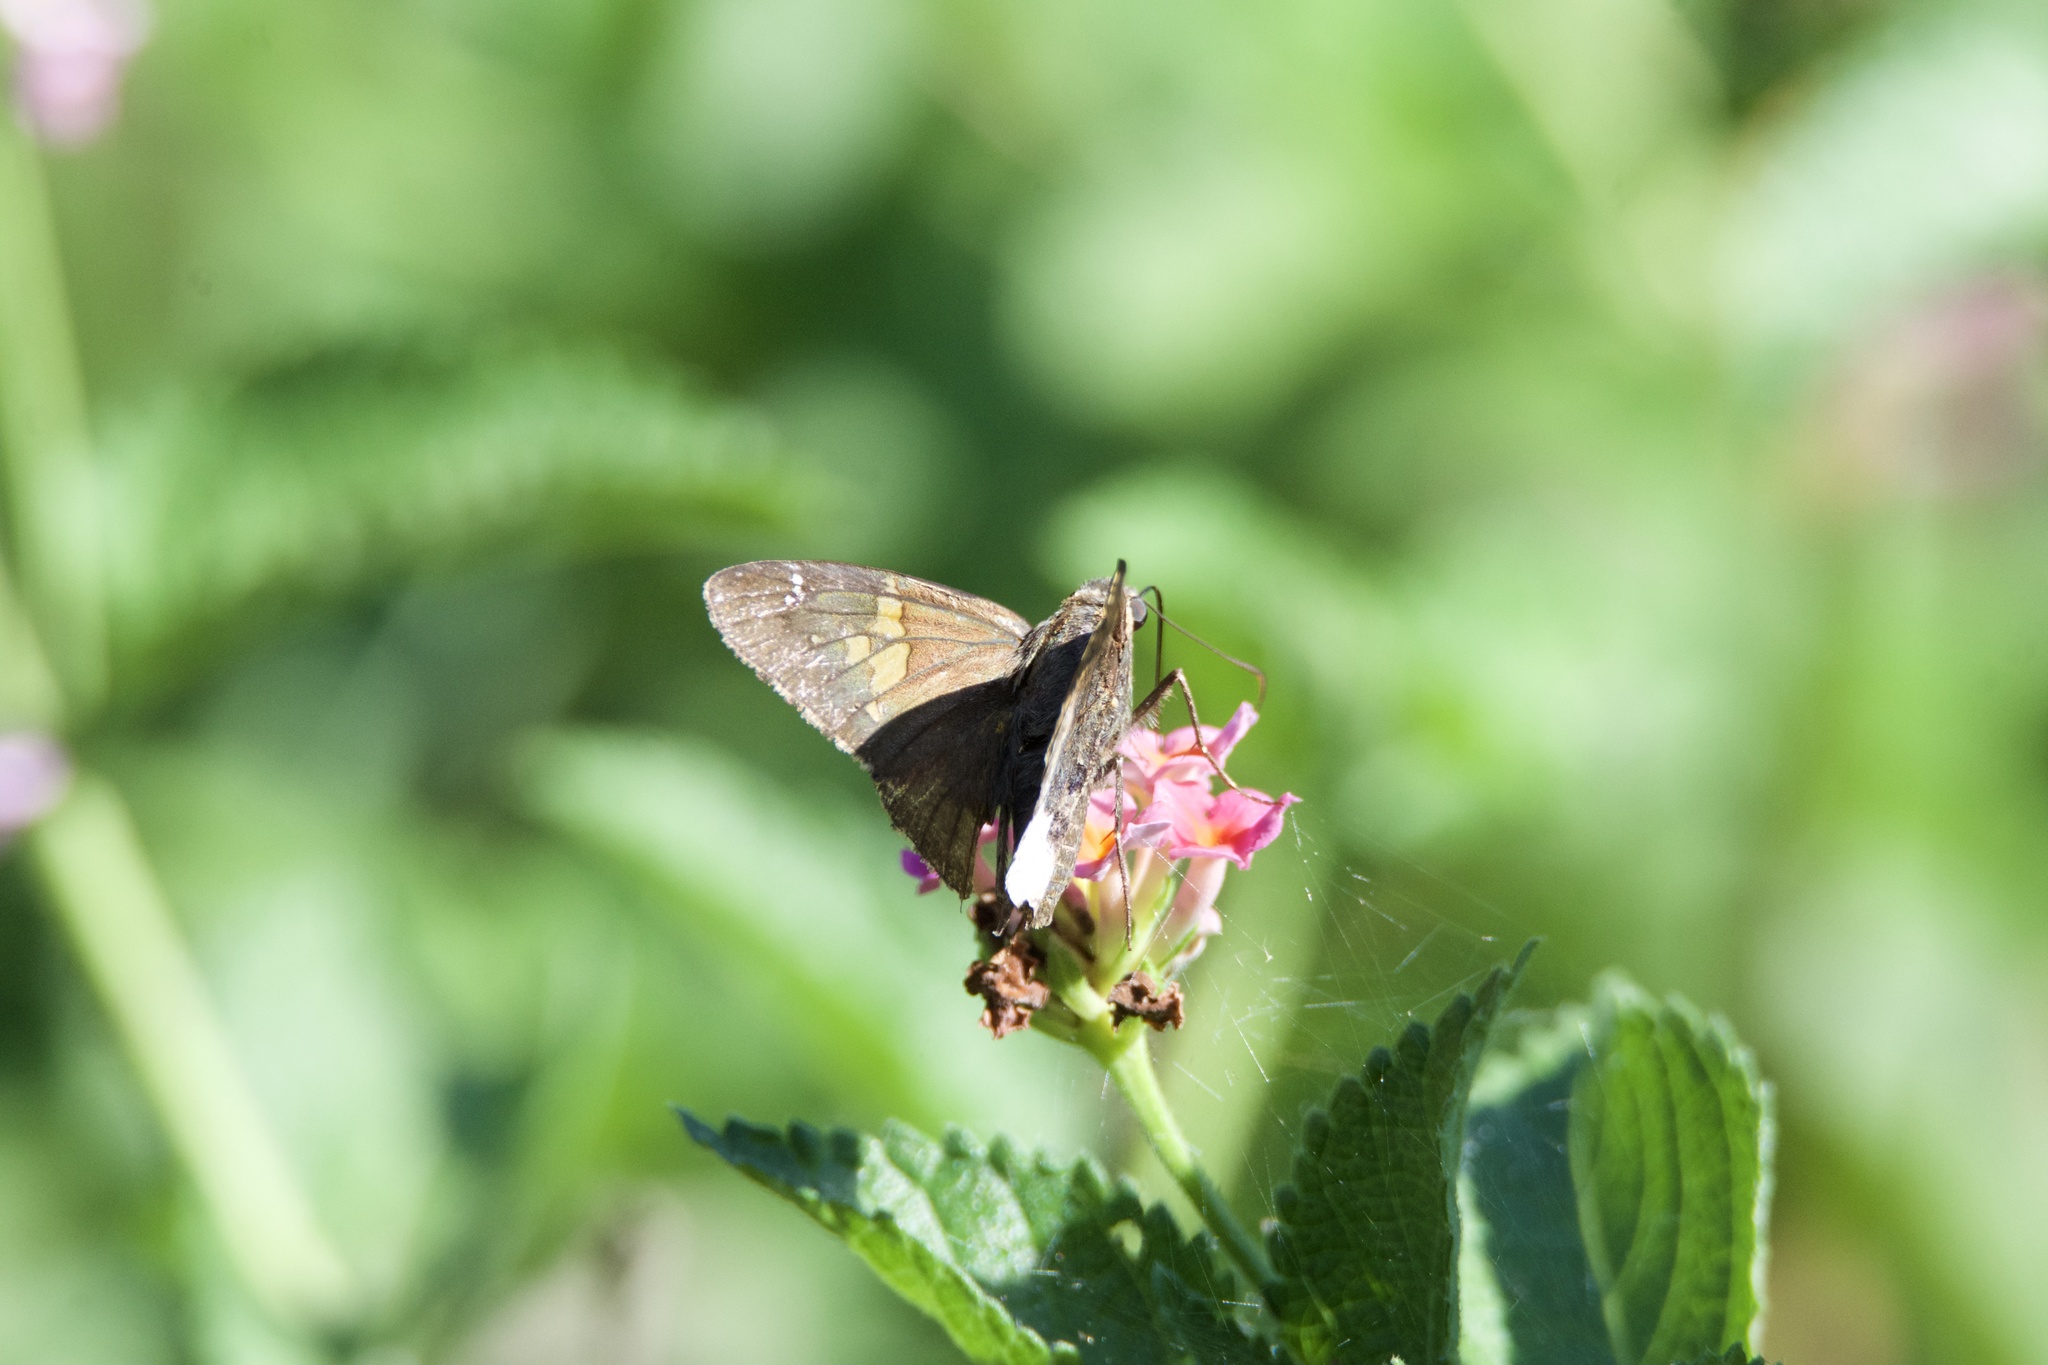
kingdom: Animalia
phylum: Arthropoda
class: Insecta
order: Lepidoptera
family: Hesperiidae
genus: Epargyreus
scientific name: Epargyreus clarus
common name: Silver-spotted skipper
